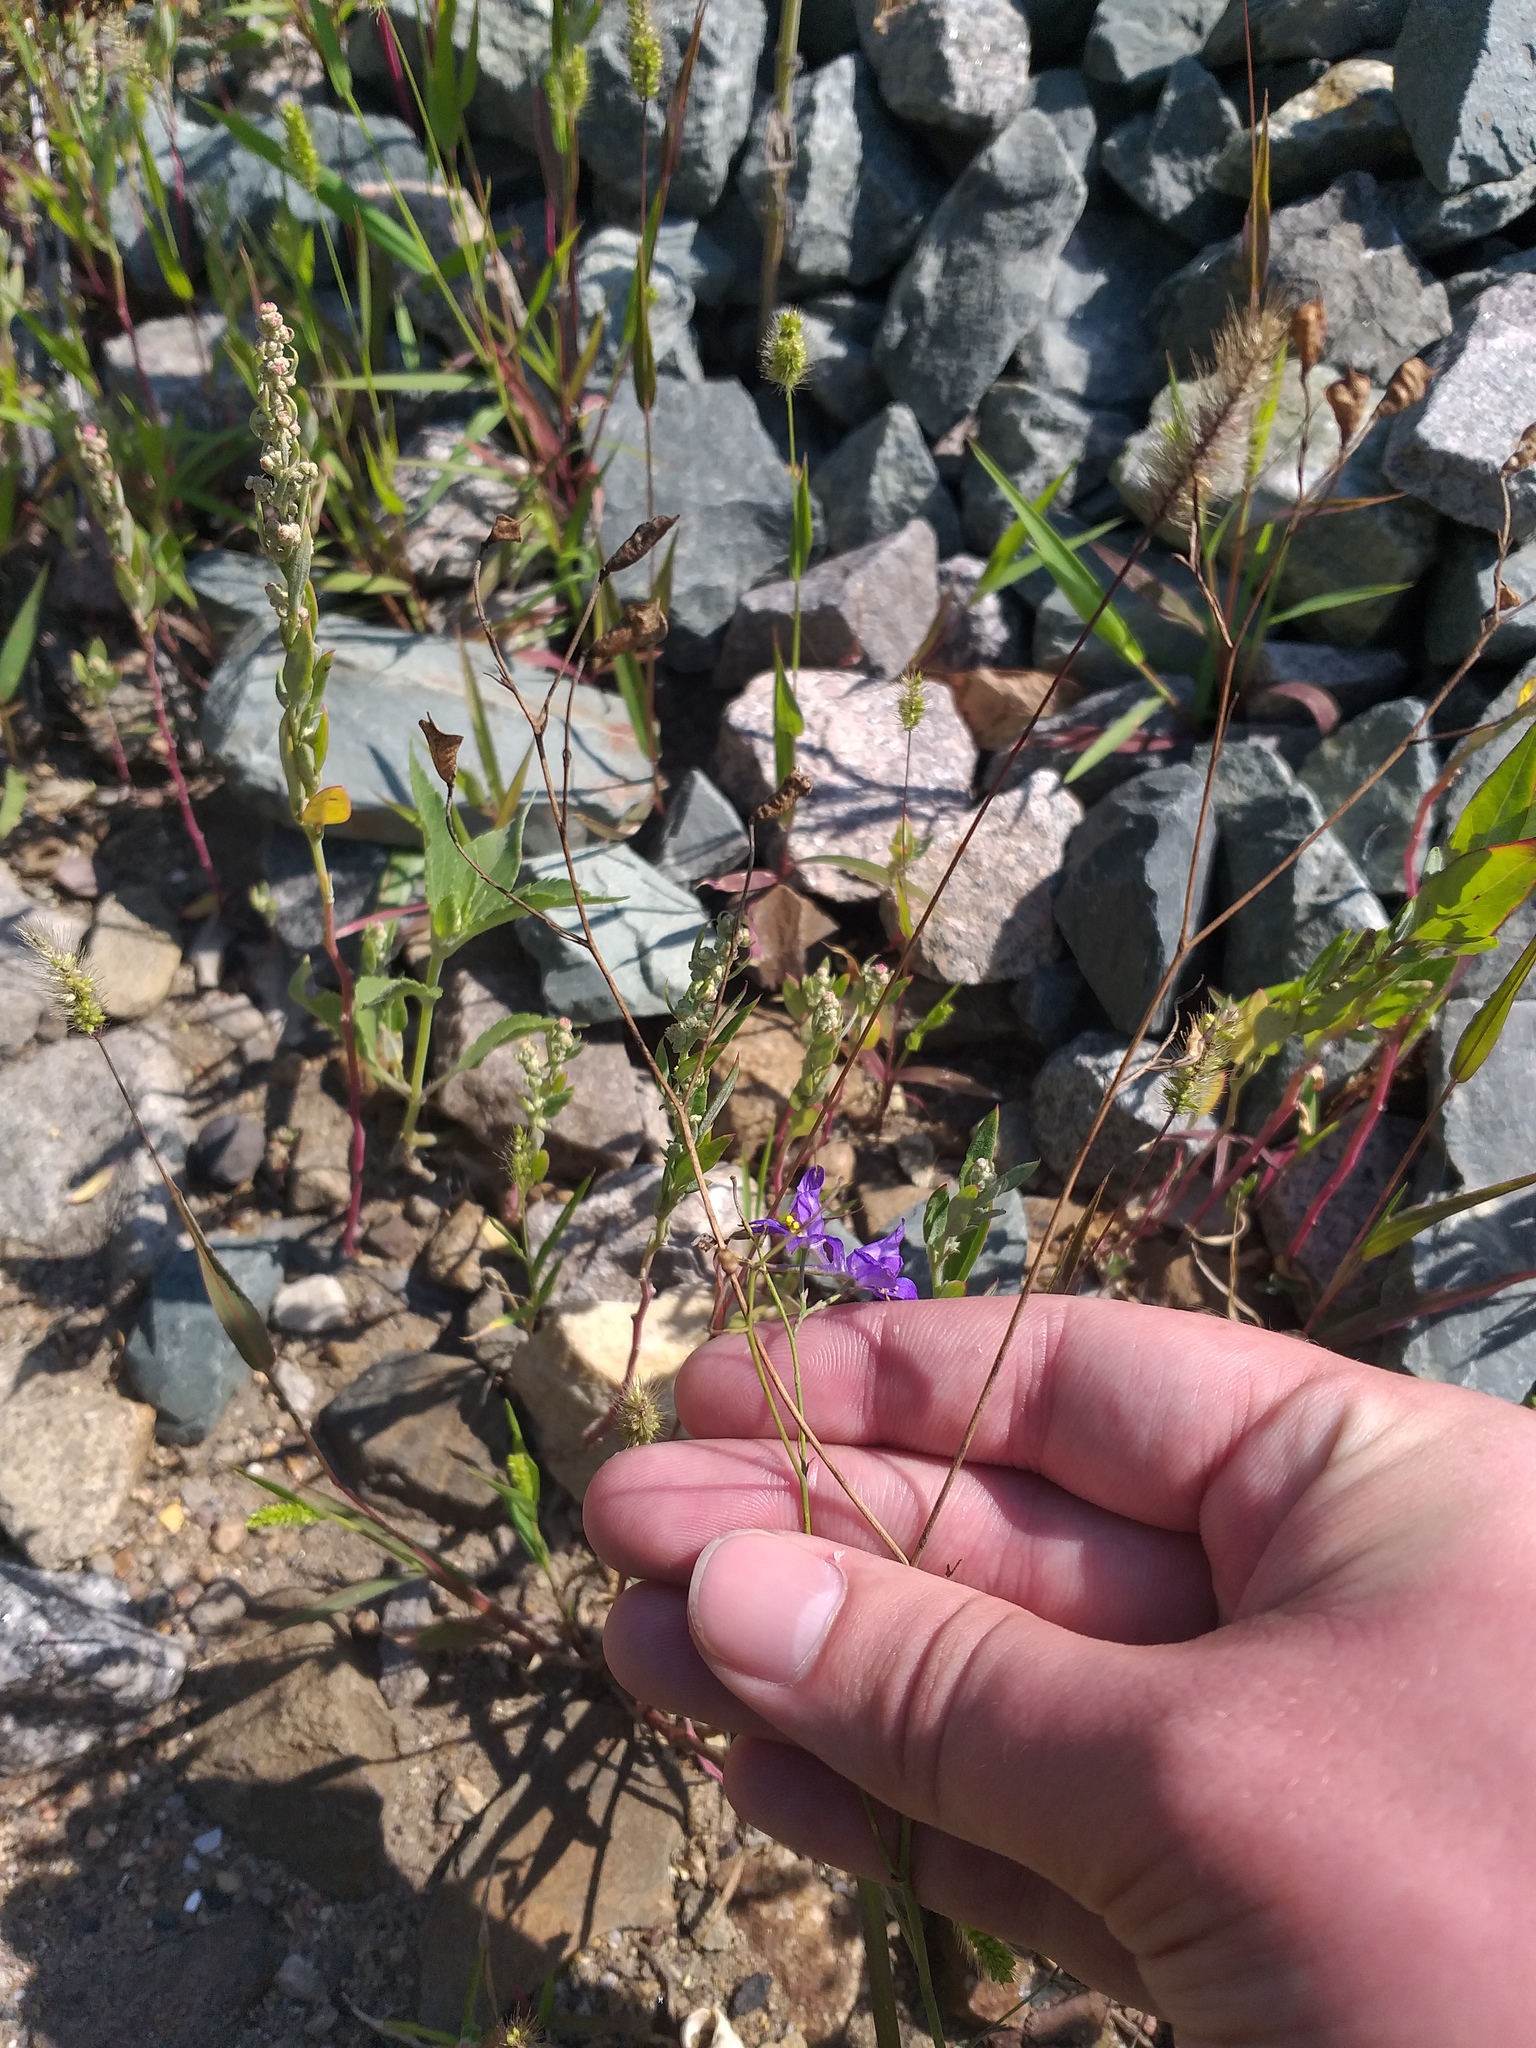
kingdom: Plantae
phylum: Tracheophyta
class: Magnoliopsida
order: Ranunculales
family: Ranunculaceae
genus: Delphinium
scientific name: Delphinium consolida
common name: Branching larkspur
